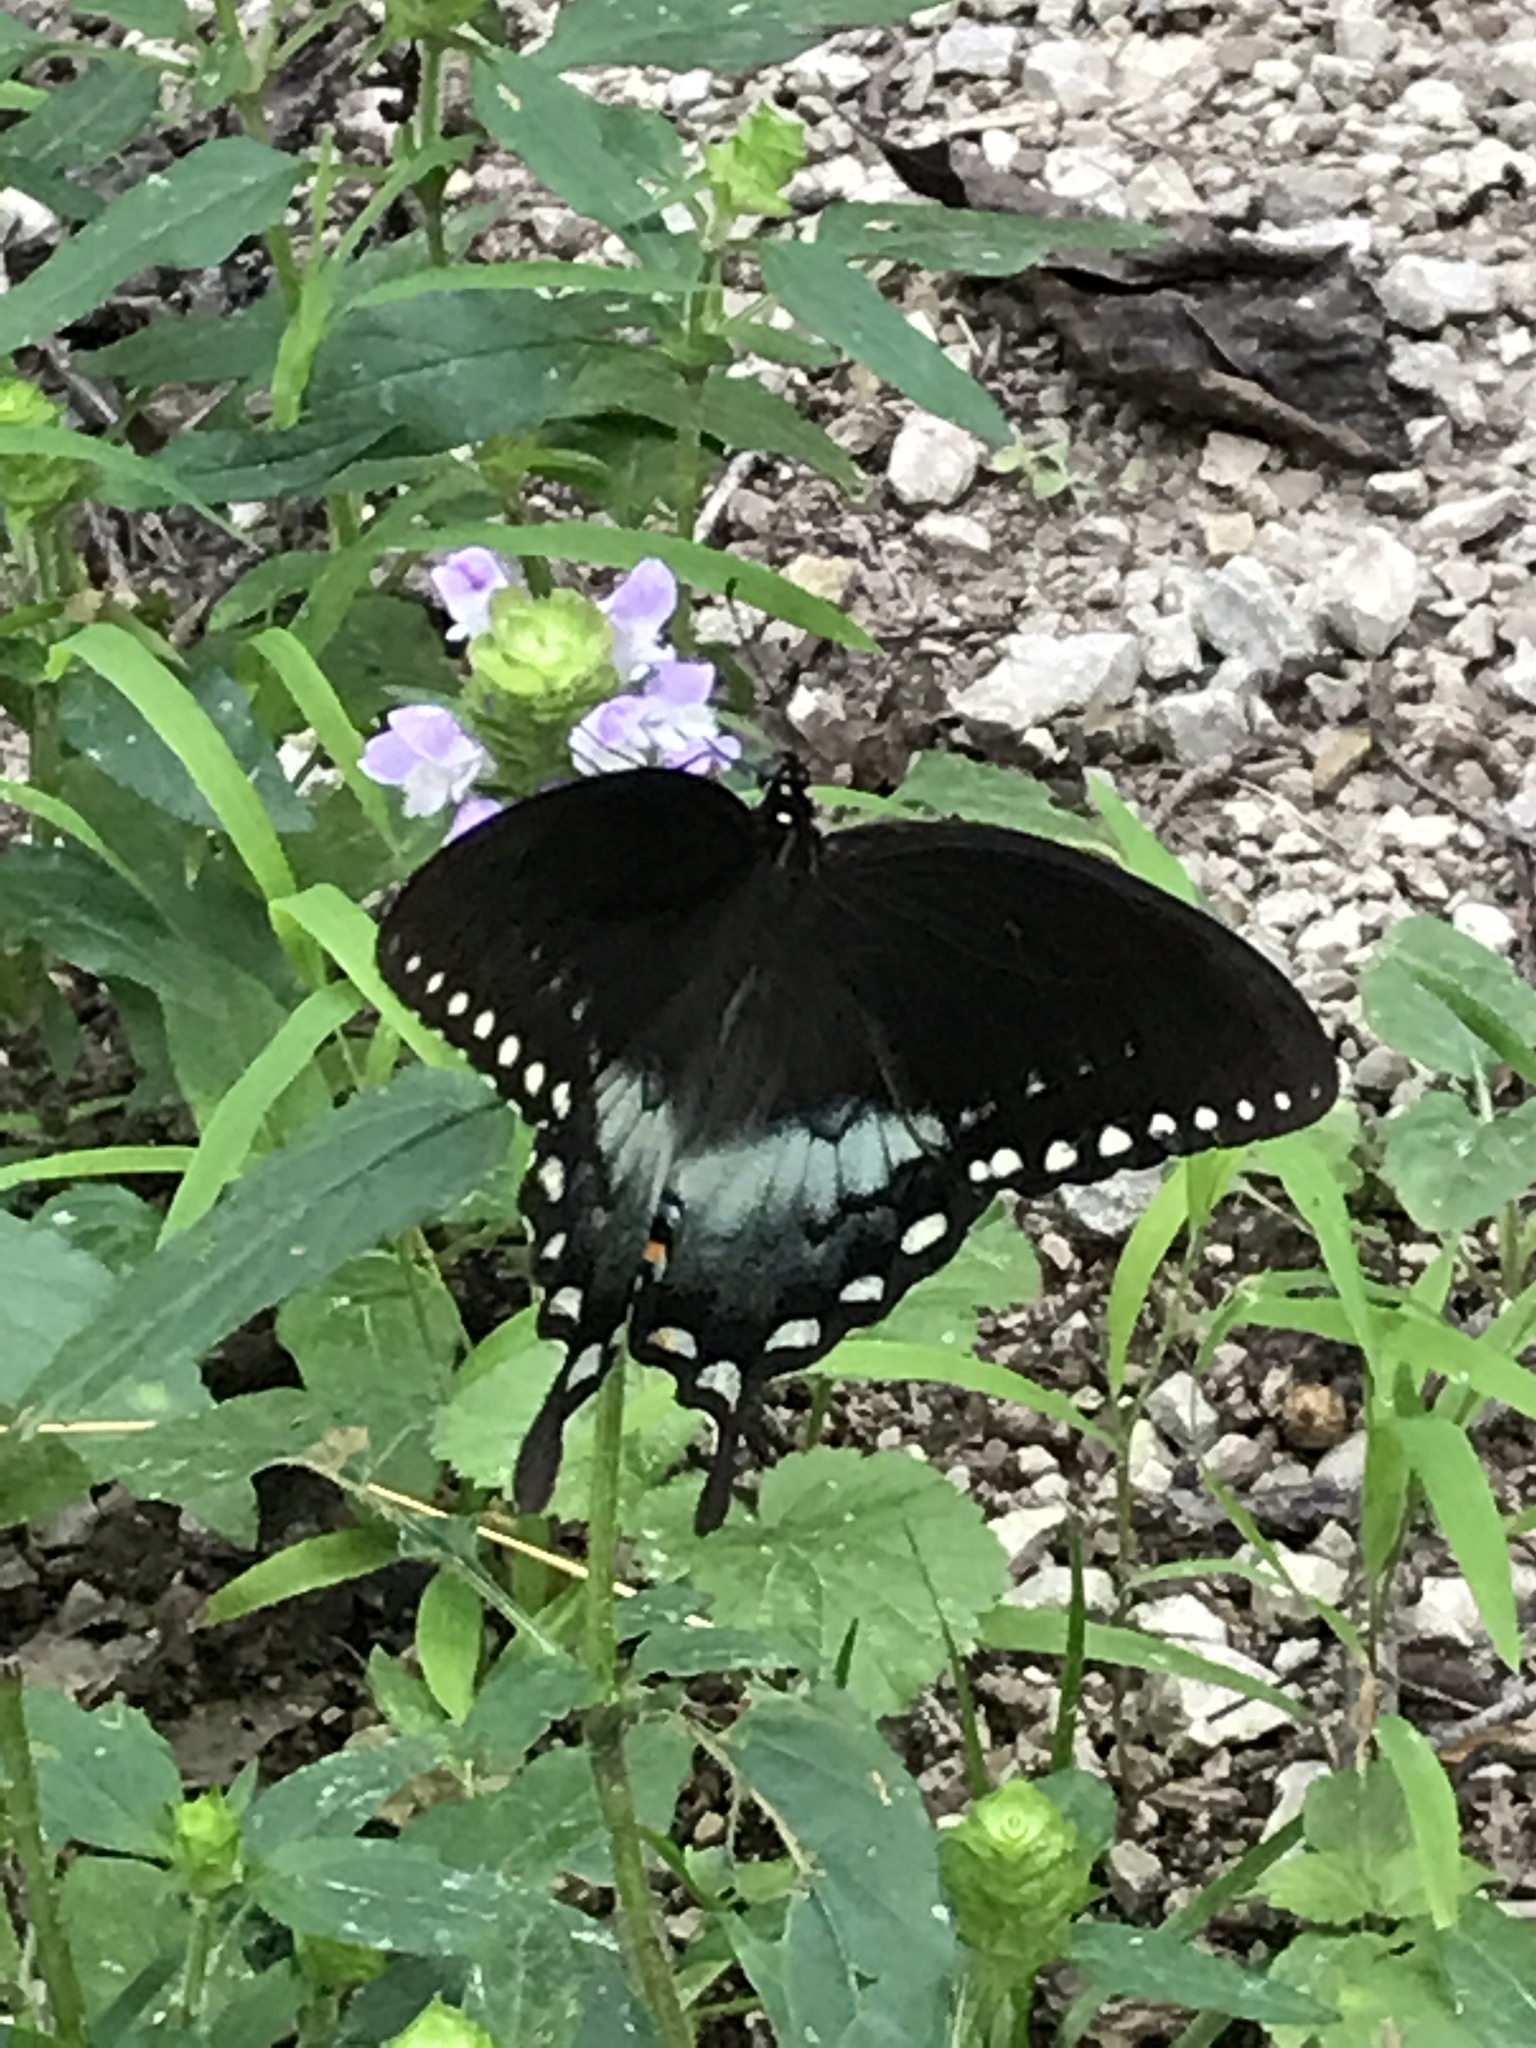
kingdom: Animalia
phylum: Arthropoda
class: Insecta
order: Lepidoptera
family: Papilionidae
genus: Papilio
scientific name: Papilio troilus
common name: Spicebush swallowtail
